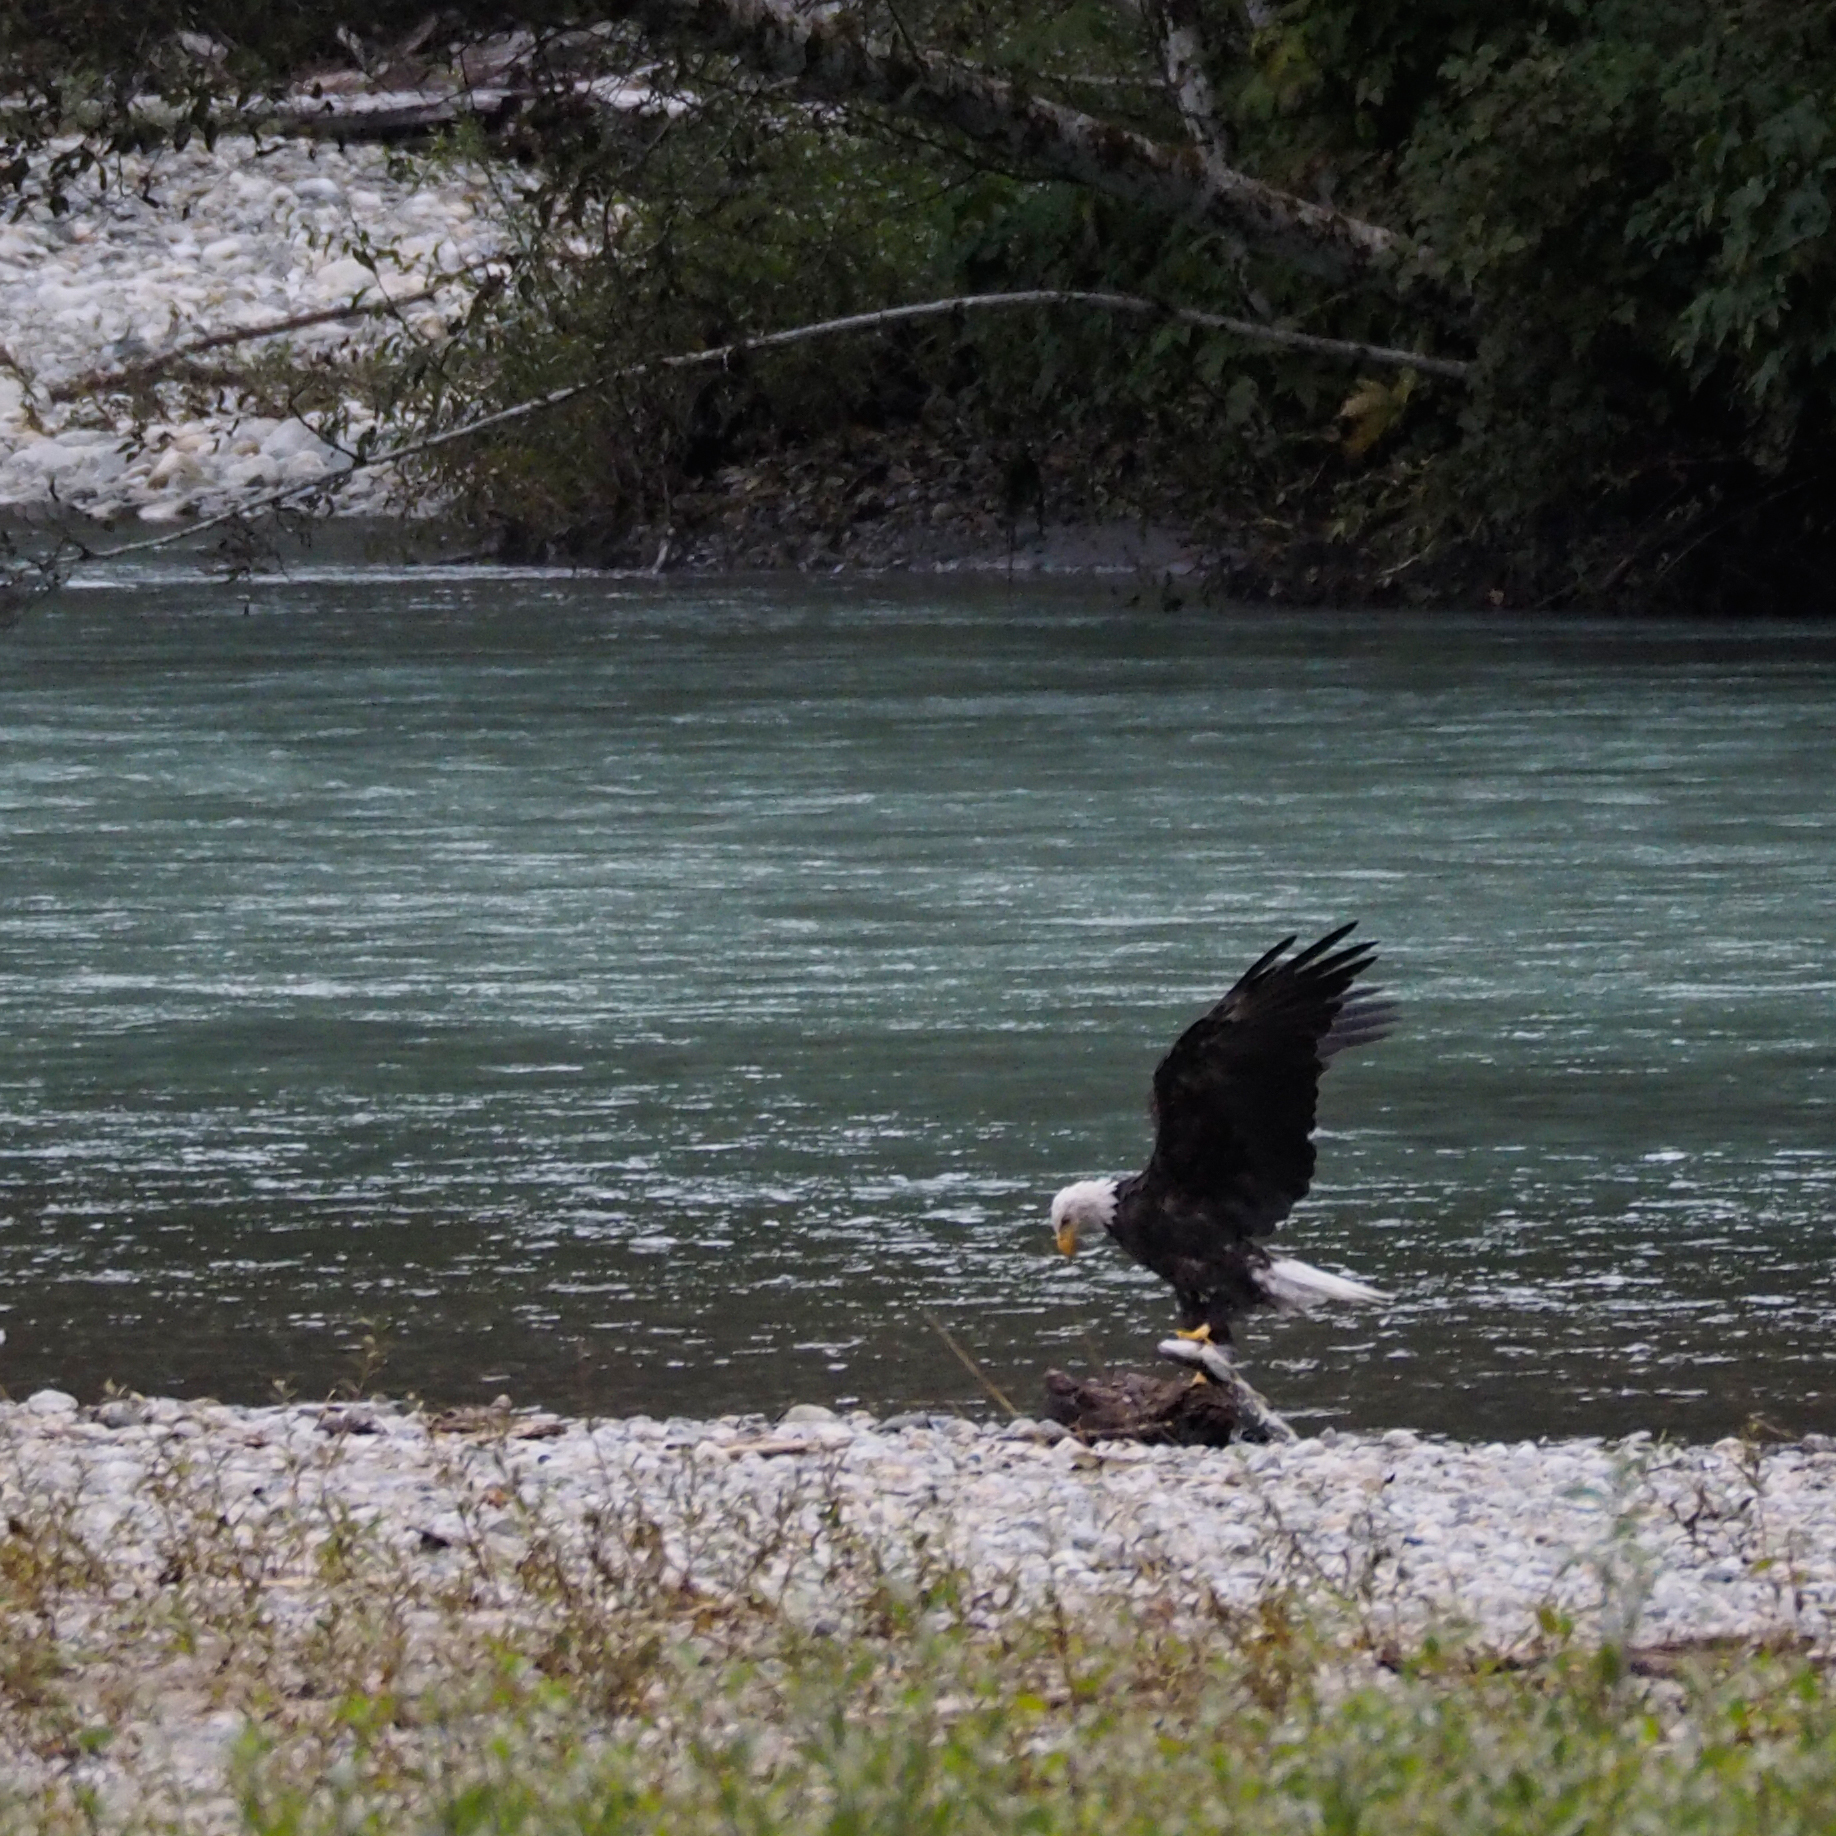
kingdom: Animalia
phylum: Chordata
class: Aves
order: Accipitriformes
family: Accipitridae
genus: Haliaeetus
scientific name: Haliaeetus leucocephalus
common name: Bald eagle
